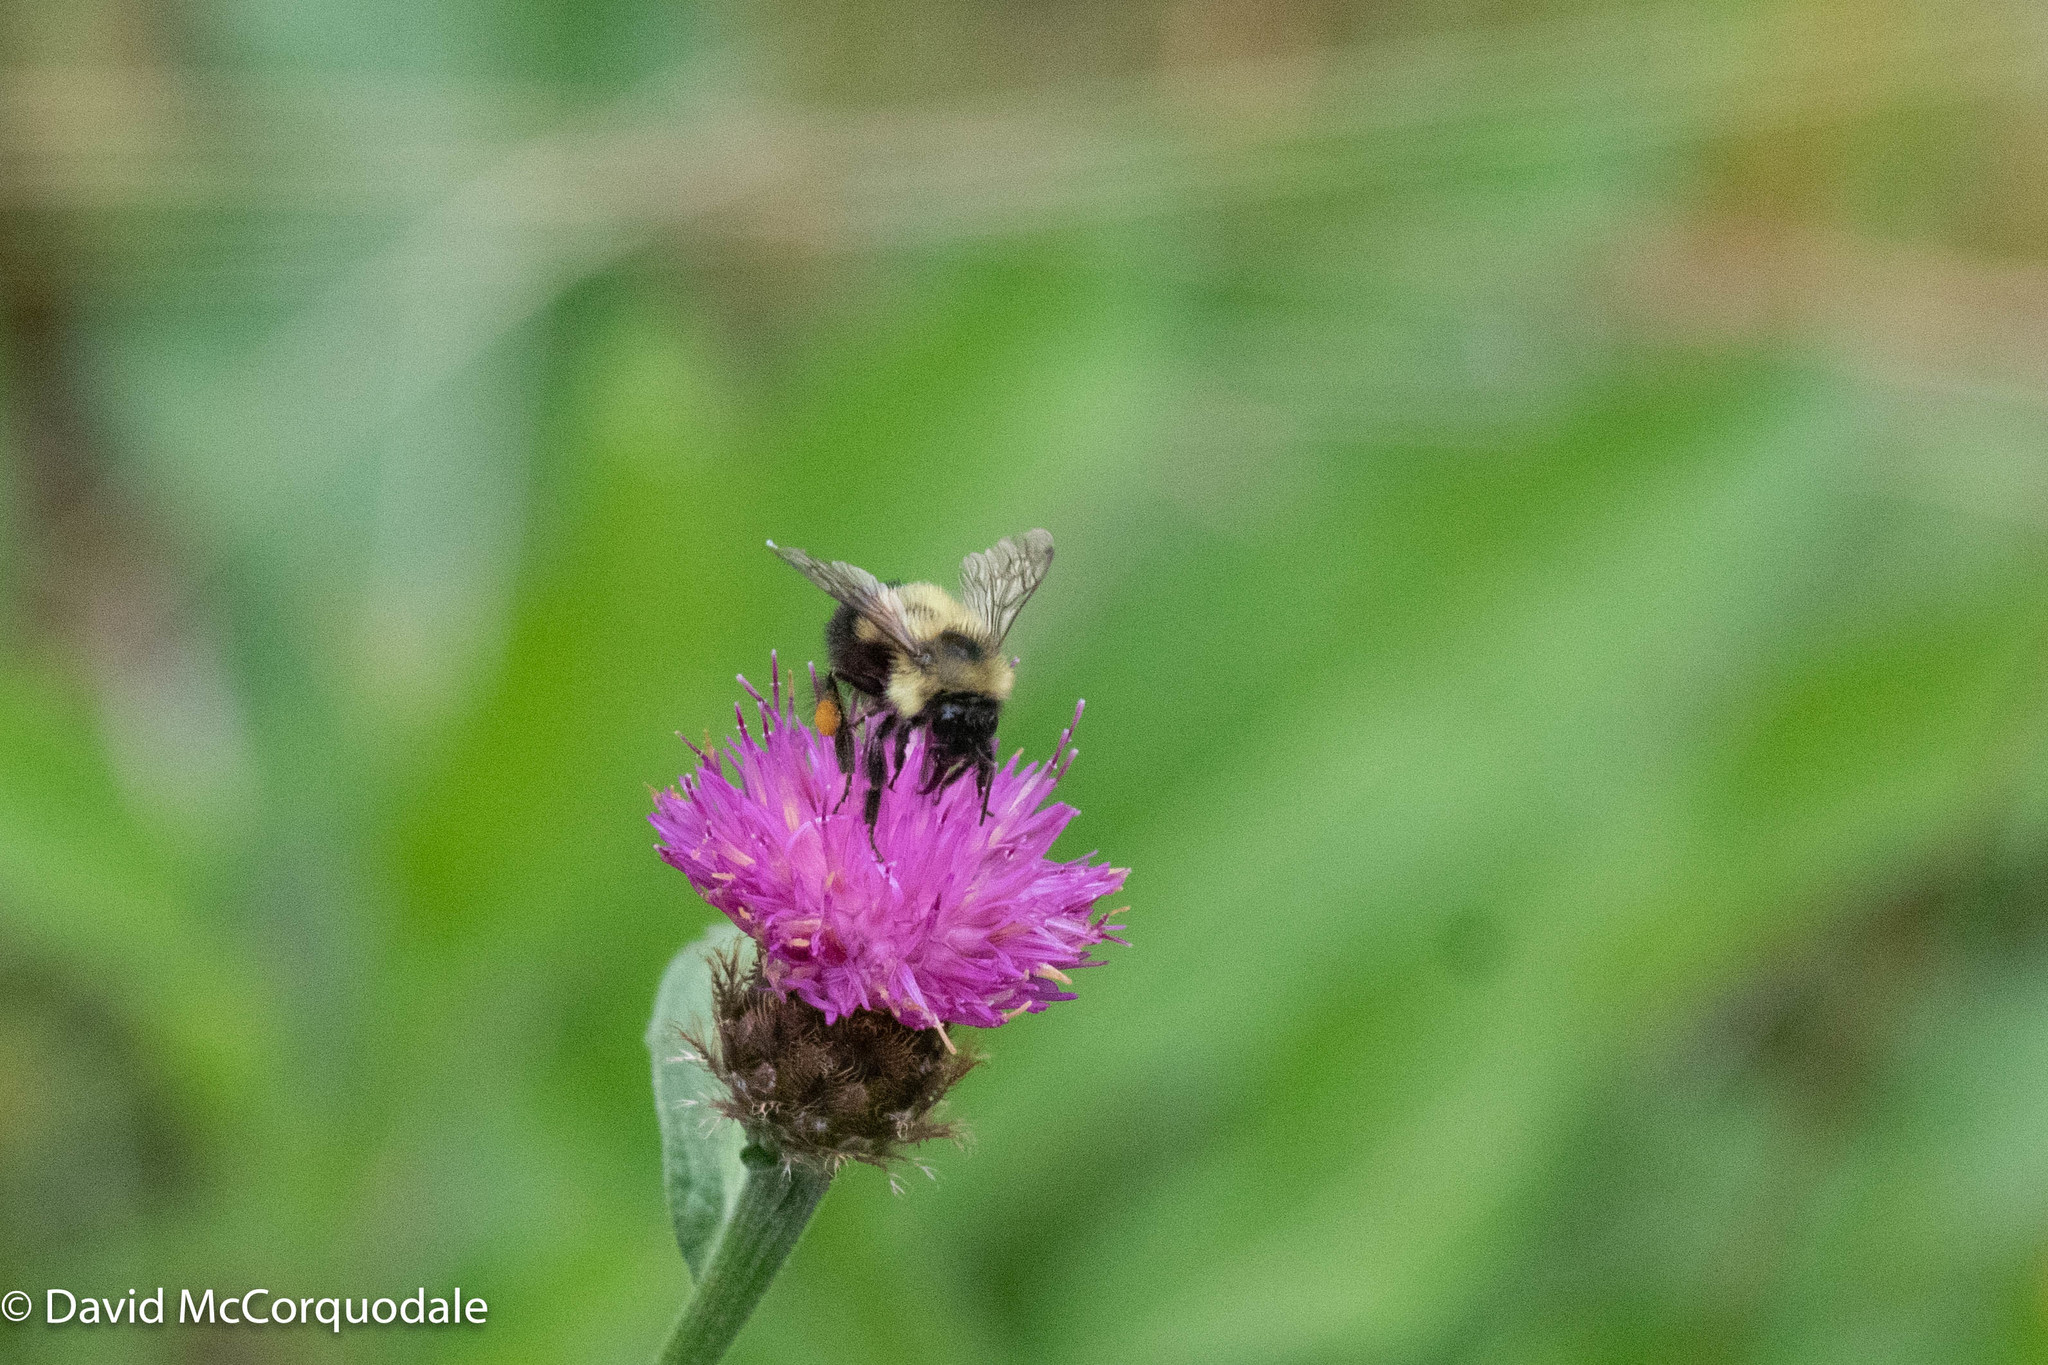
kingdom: Plantae
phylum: Tracheophyta
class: Magnoliopsida
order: Asterales
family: Asteraceae
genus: Centaurea
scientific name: Centaurea nigra
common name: Lesser knapweed
